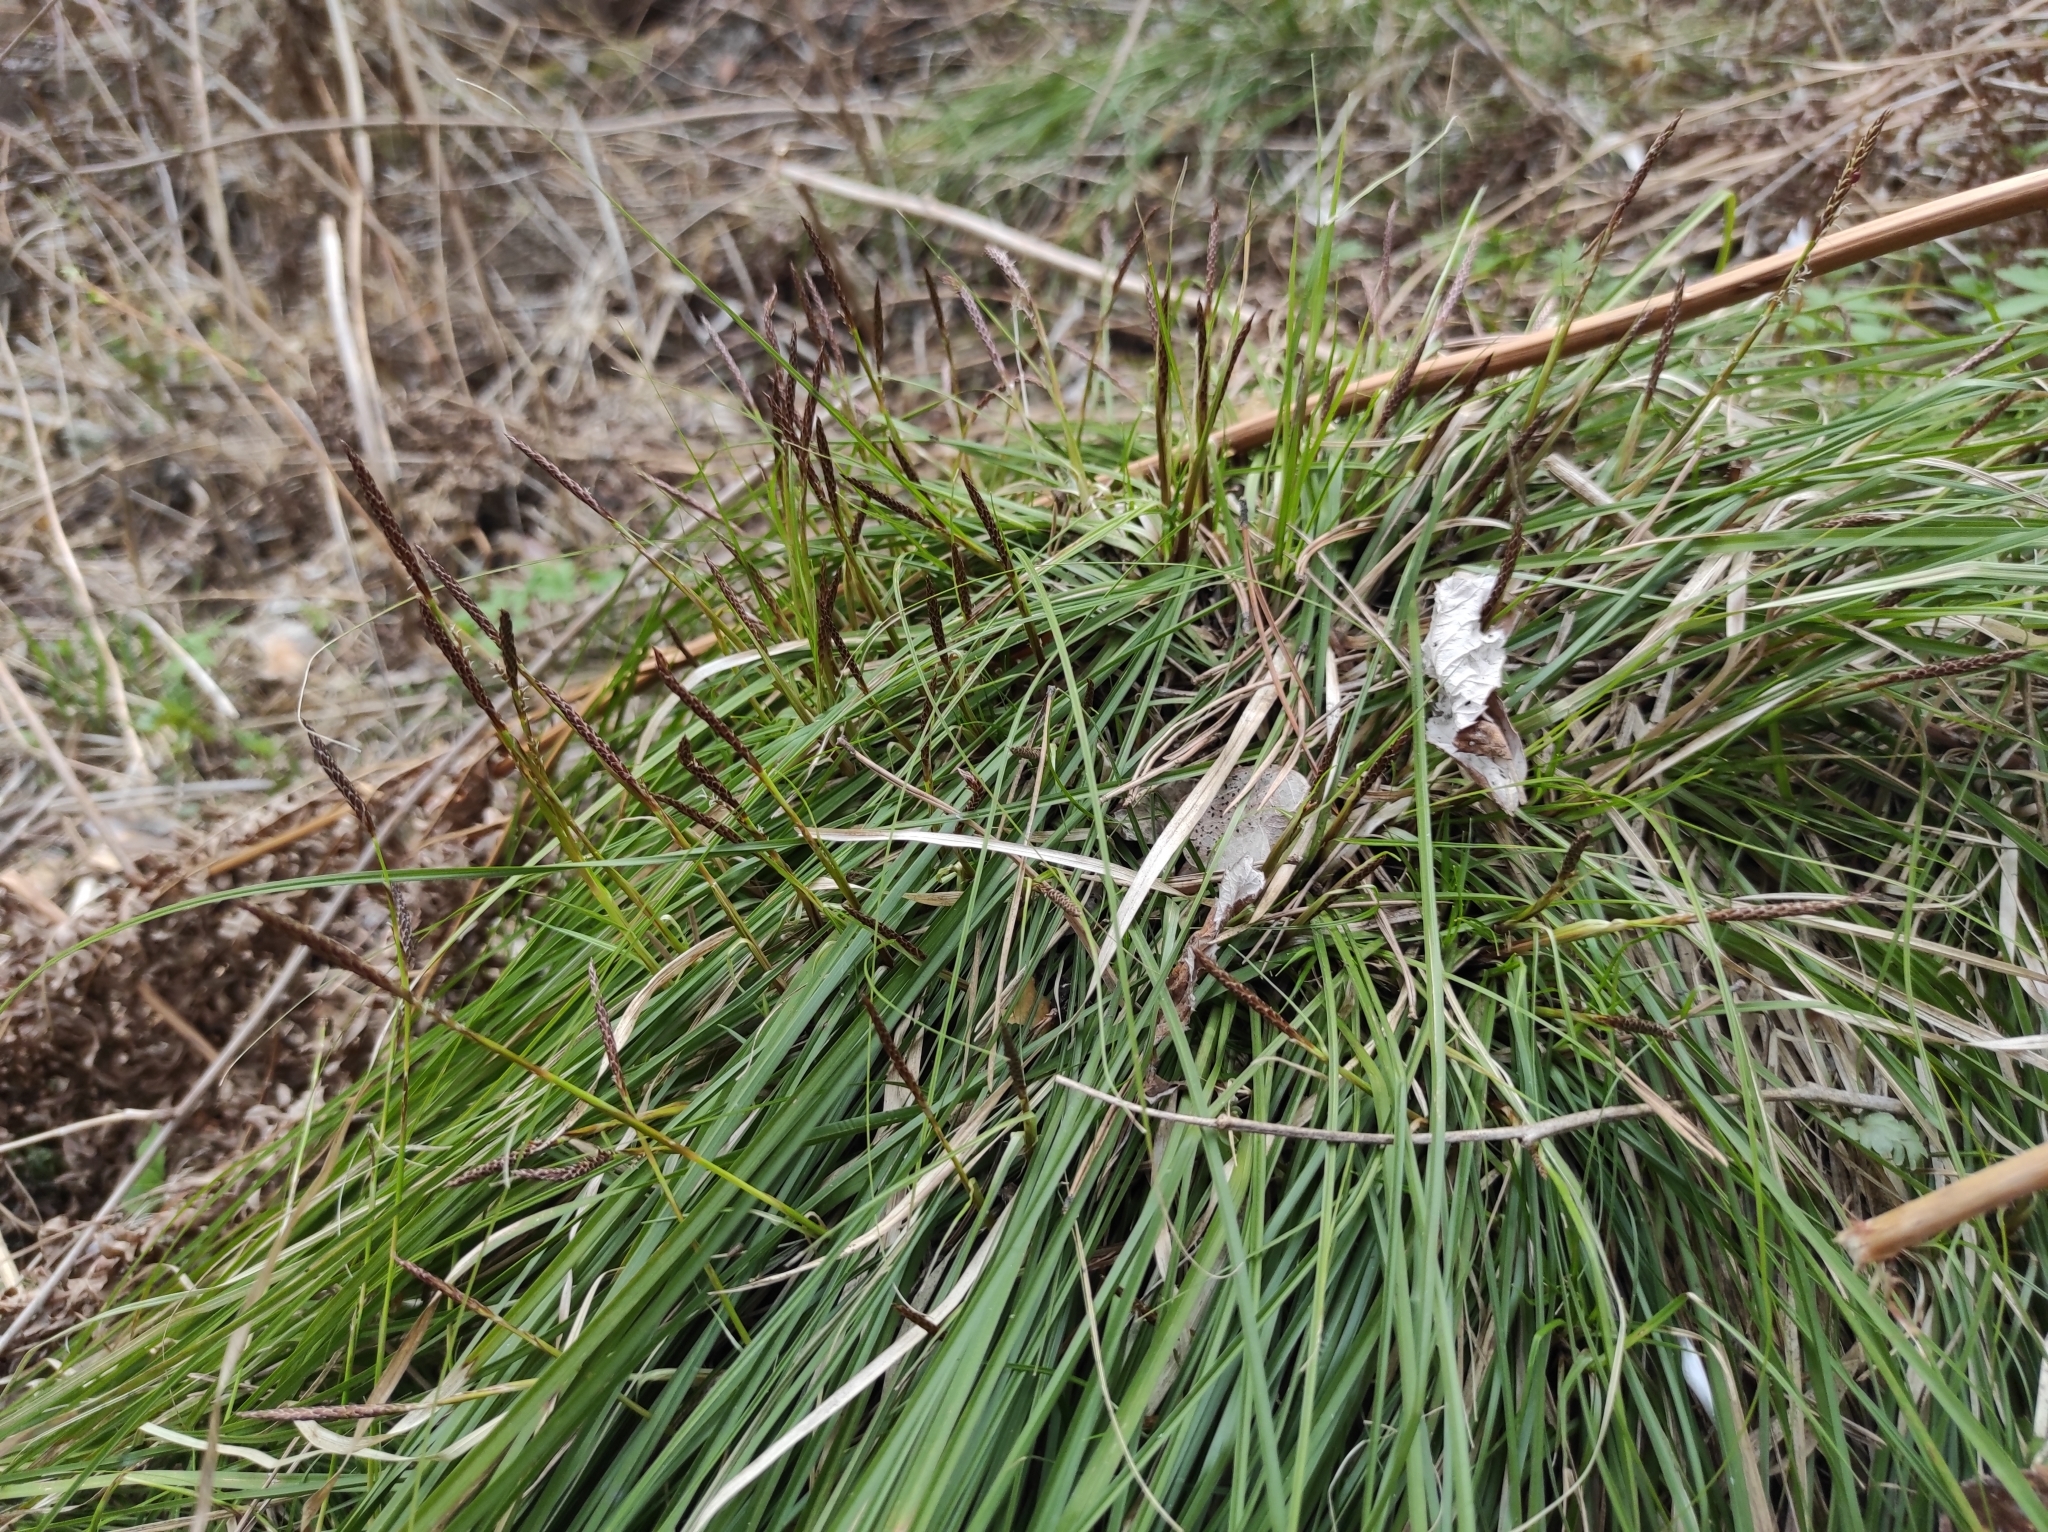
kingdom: Plantae
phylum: Tracheophyta
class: Liliopsida
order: Poales
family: Cyperaceae
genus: Carex
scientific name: Carex pediformis
